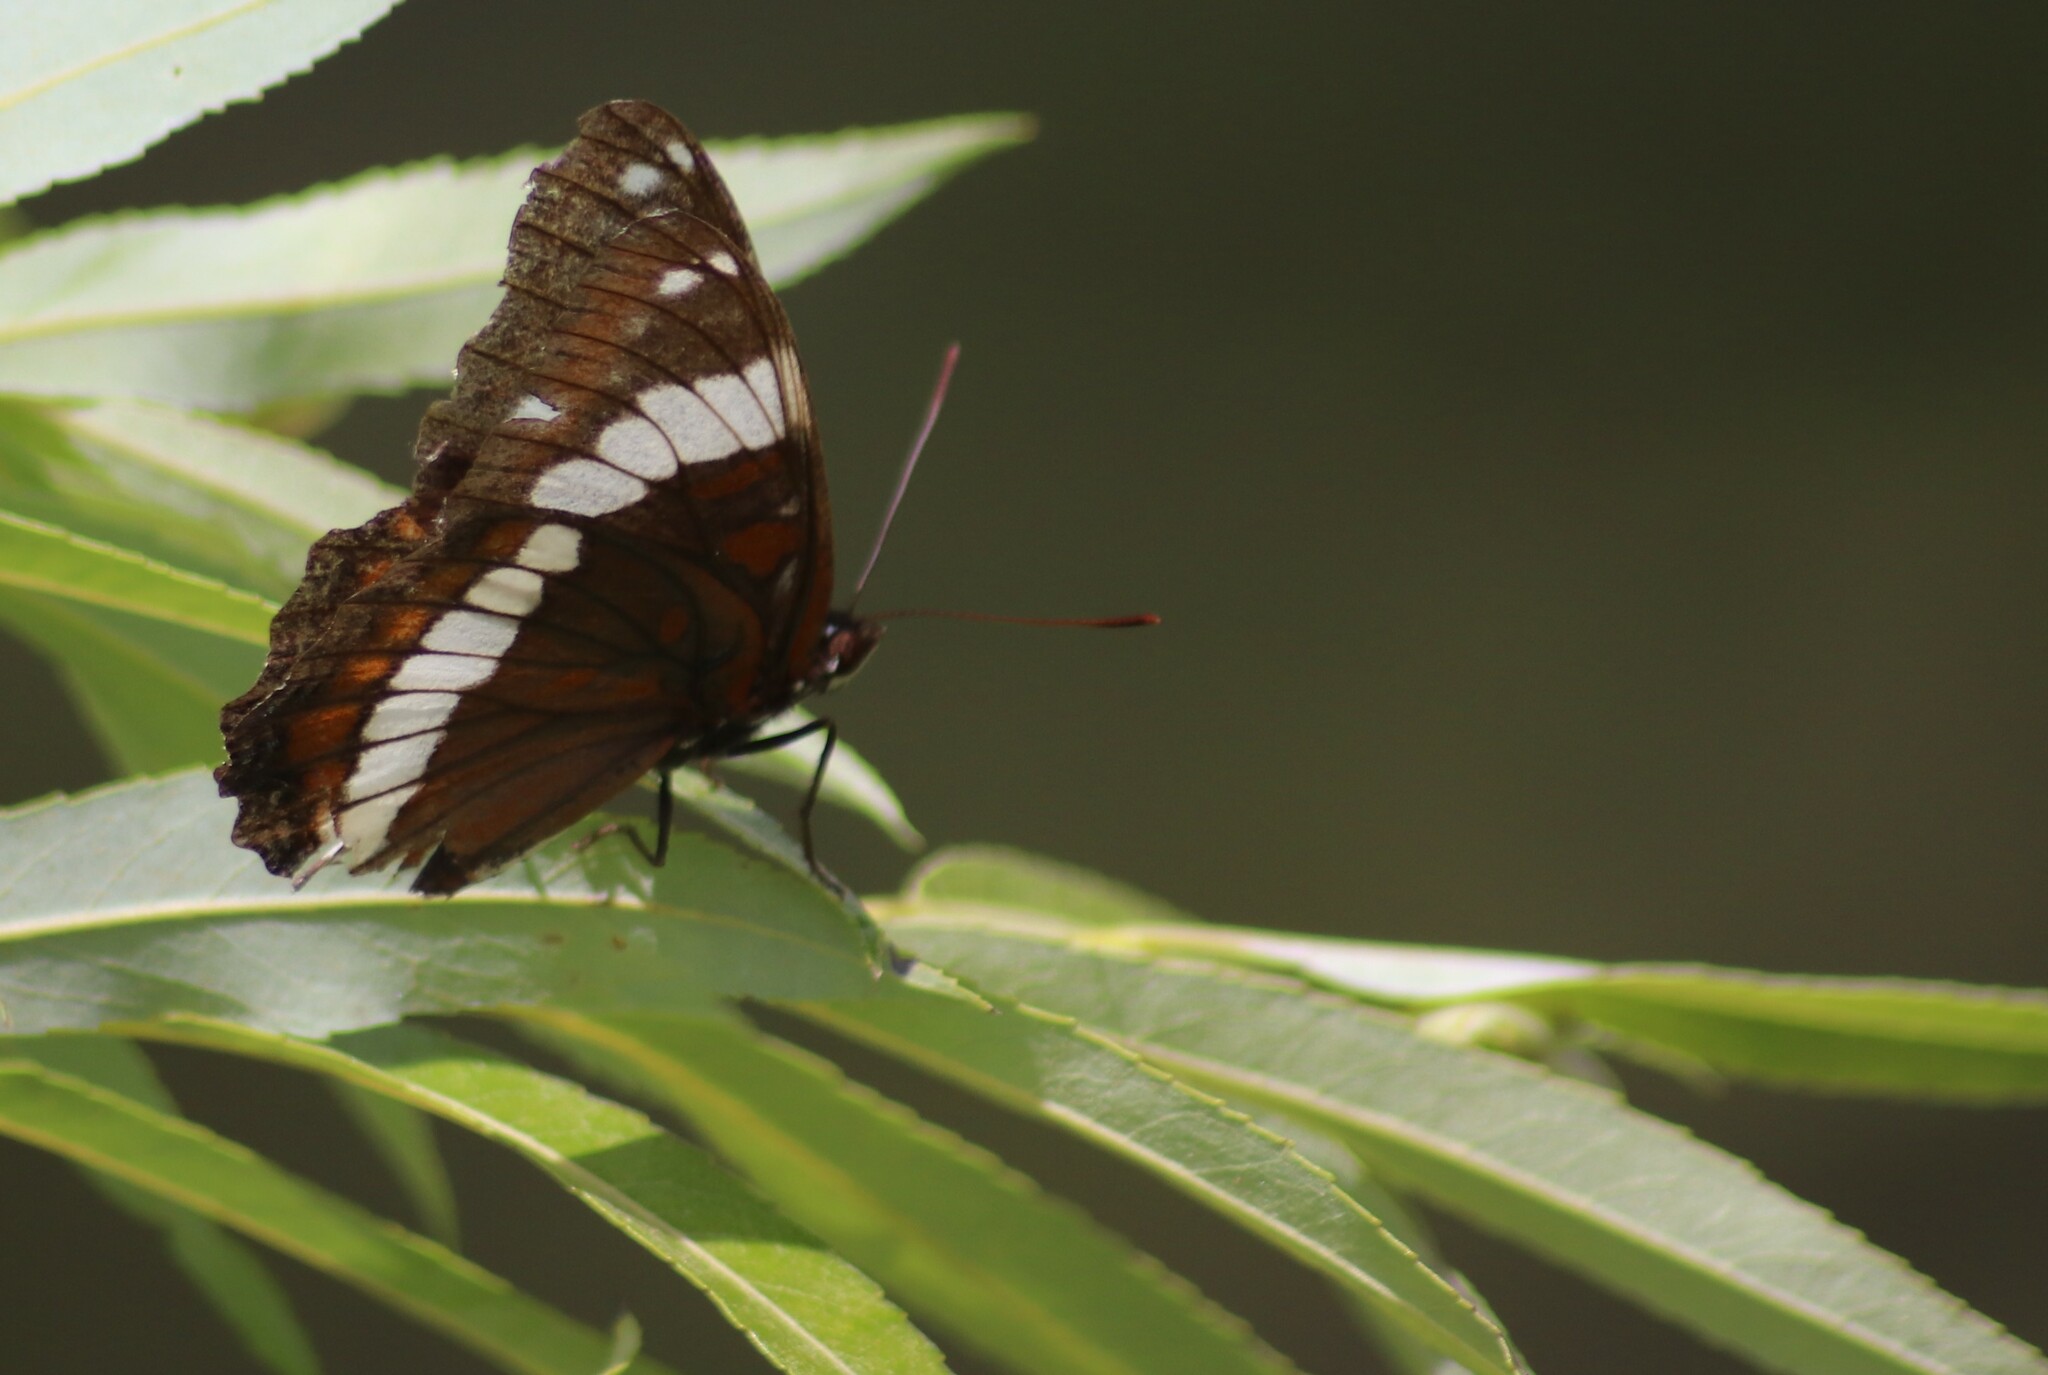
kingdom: Animalia
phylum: Arthropoda
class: Insecta
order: Lepidoptera
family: Nymphalidae
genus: Limenitis
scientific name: Limenitis arthemis
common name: Red-spotted admiral
